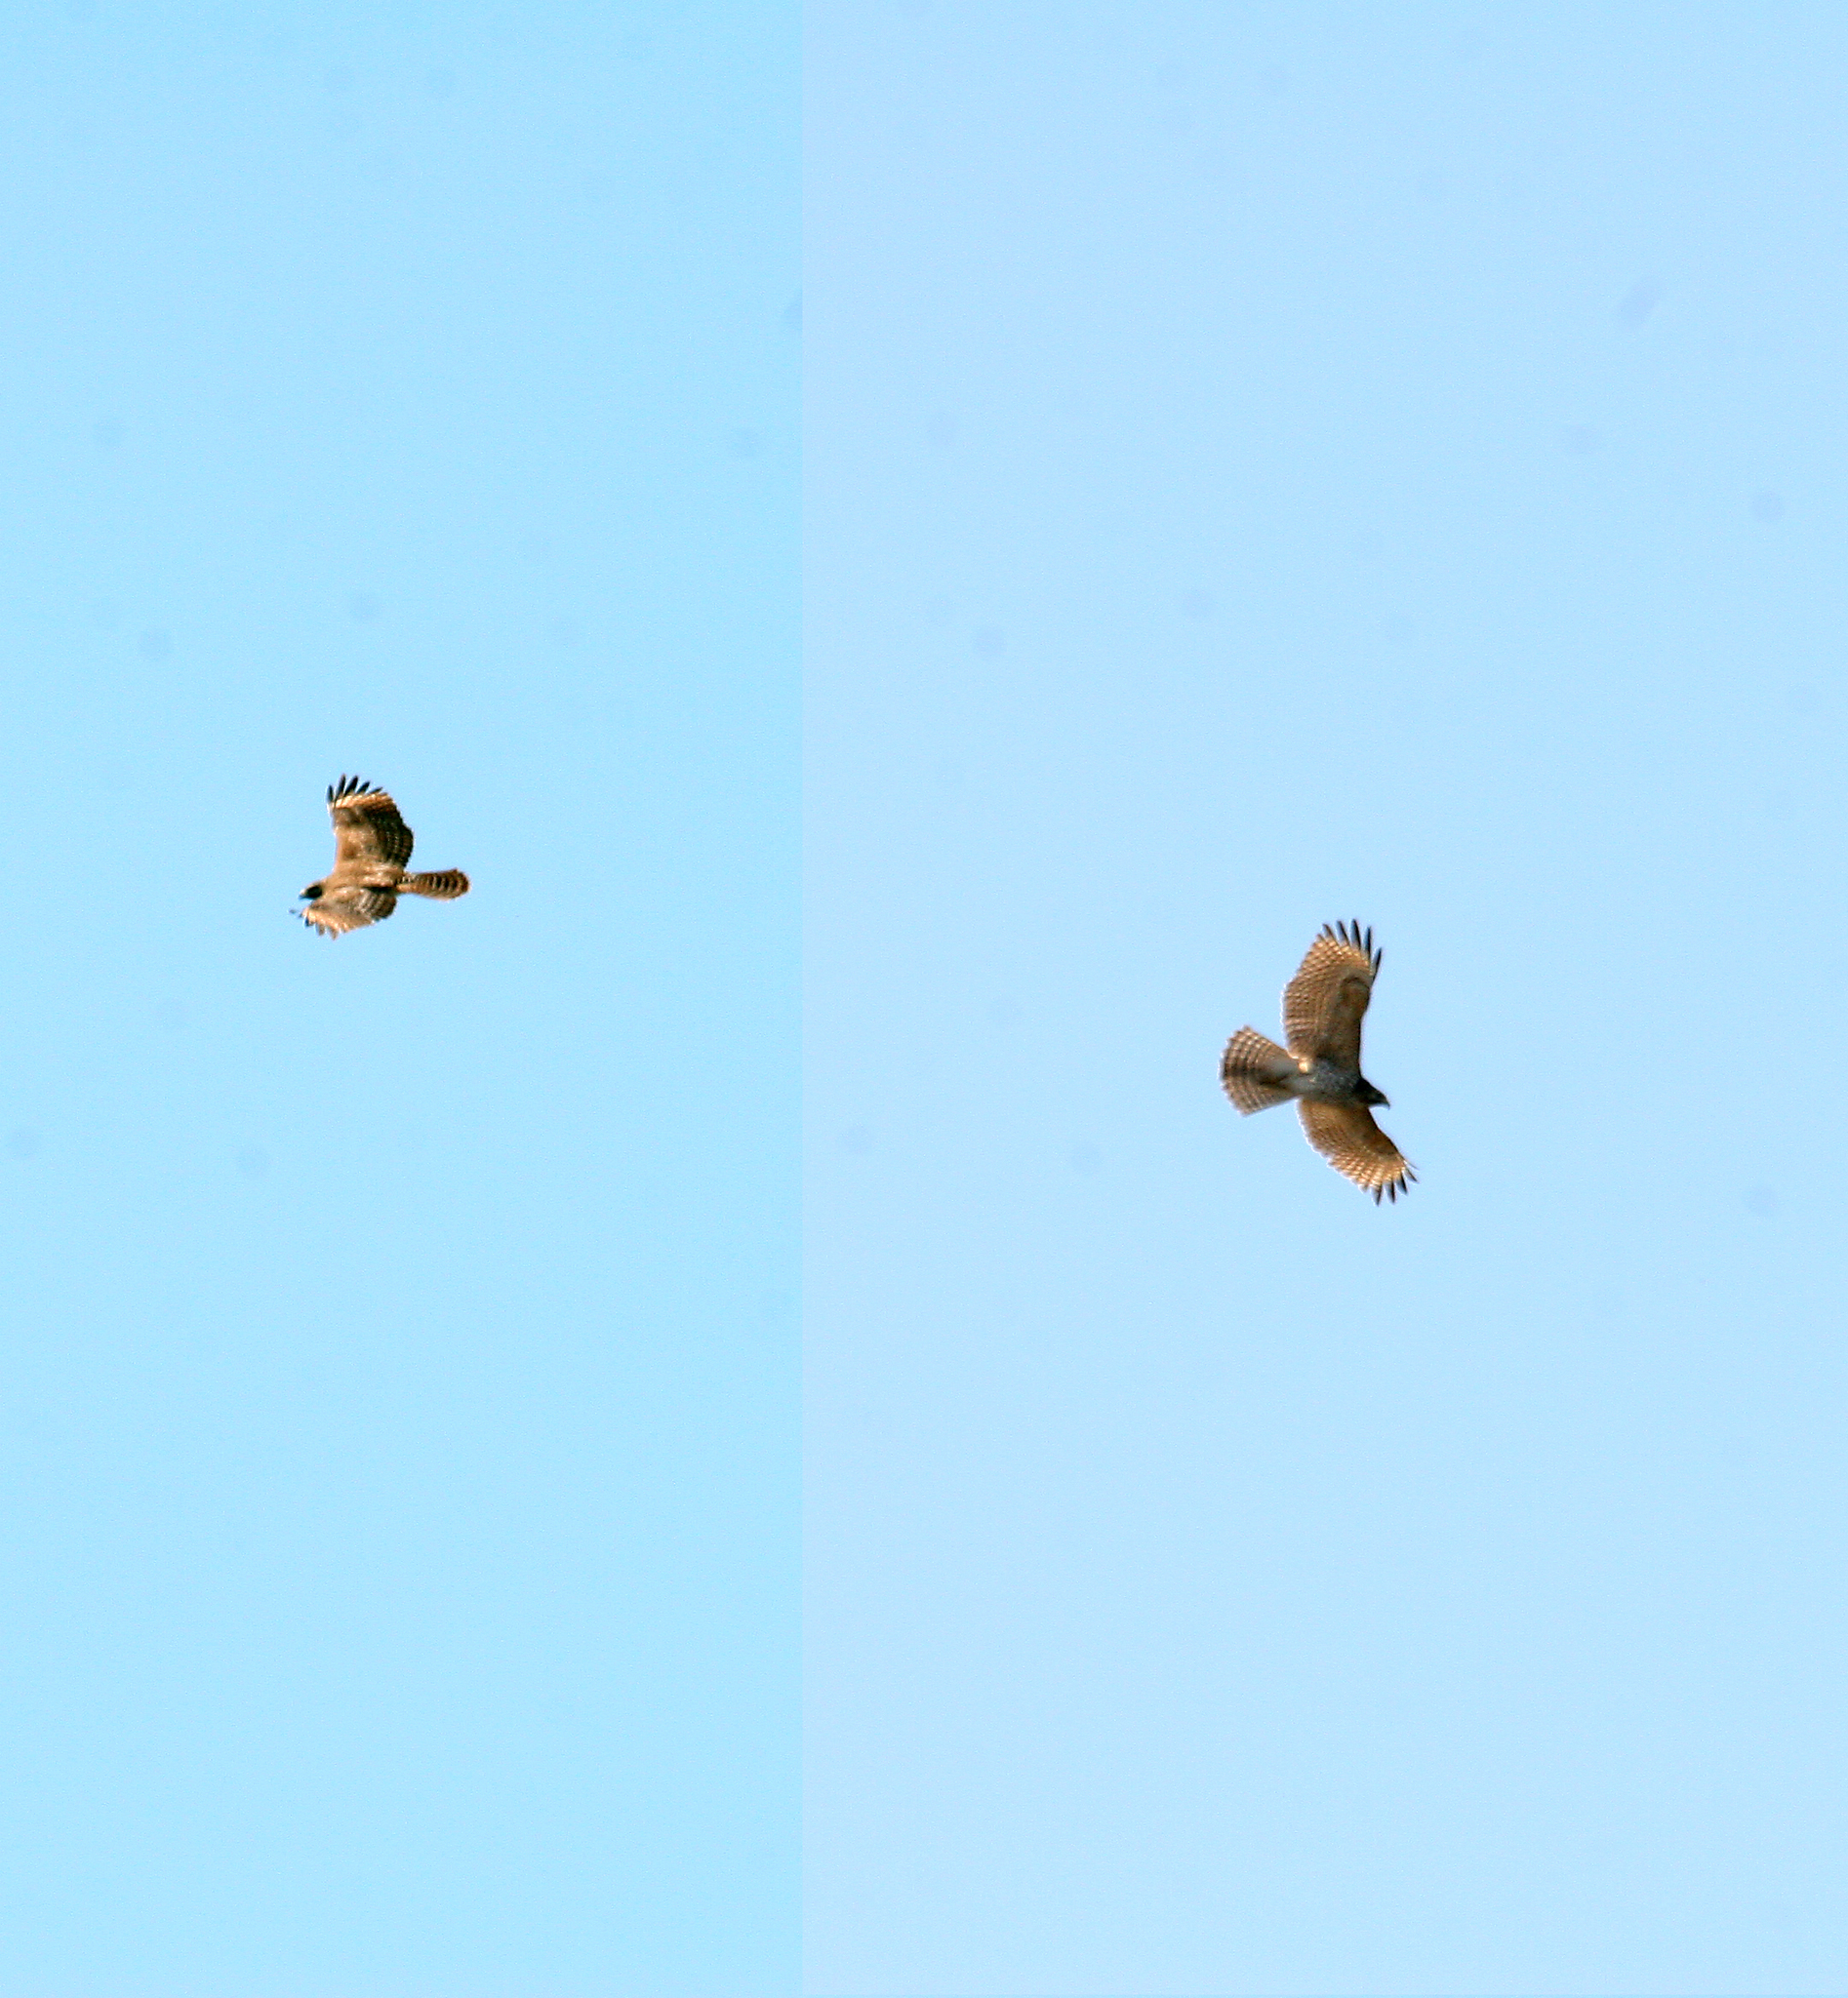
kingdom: Animalia
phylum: Chordata
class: Aves
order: Accipitriformes
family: Accipitridae
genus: Buteo
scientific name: Buteo lineatus
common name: Red-shouldered hawk
